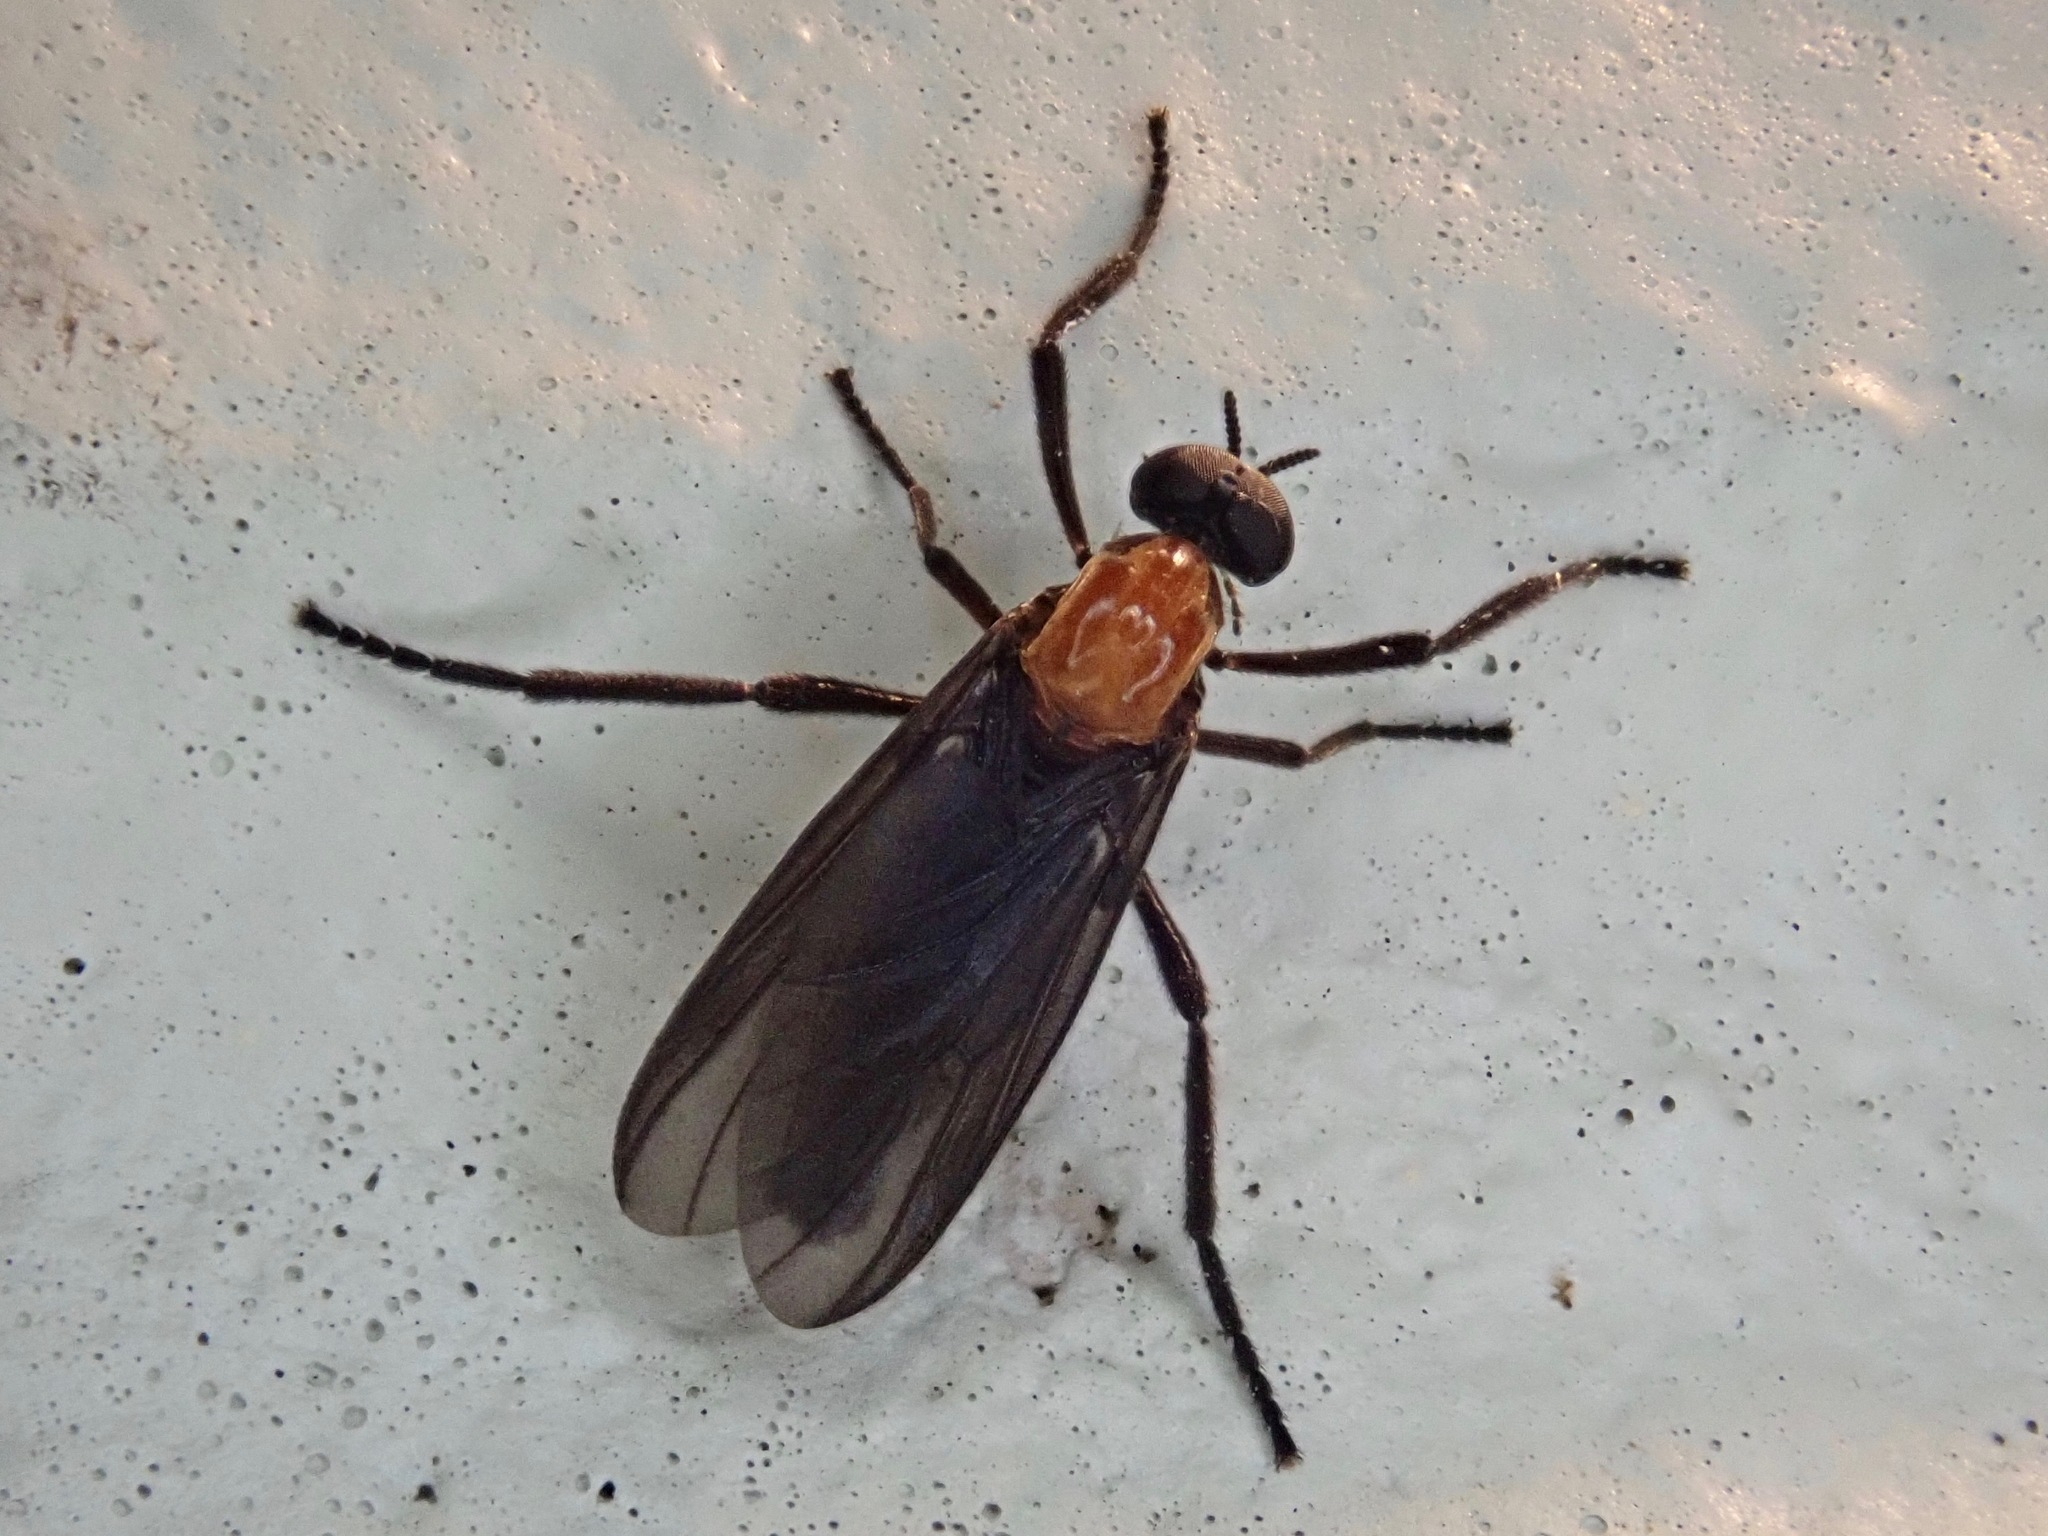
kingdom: Animalia
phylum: Arthropoda
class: Insecta
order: Diptera
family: Bibionidae
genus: Plecia
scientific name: Plecia nearctica
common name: March fly
